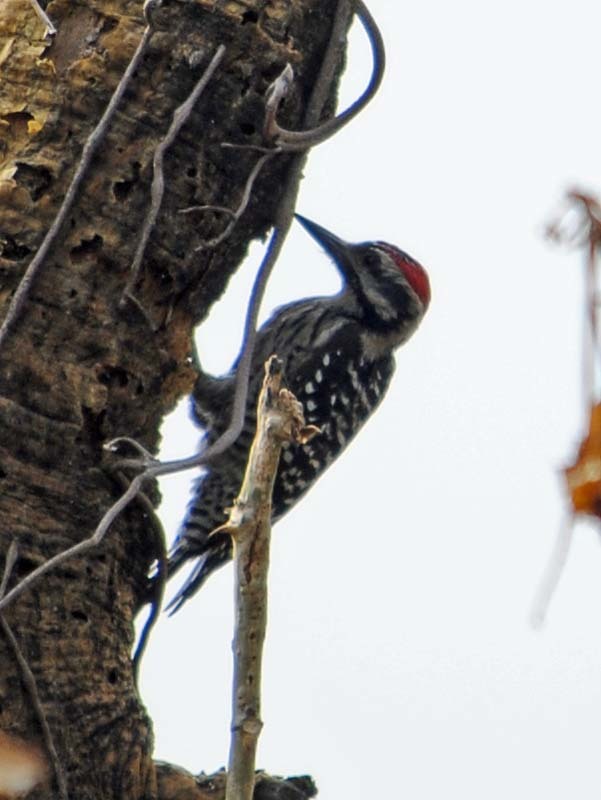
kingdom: Animalia
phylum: Chordata
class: Aves
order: Piciformes
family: Picidae
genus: Dryobates
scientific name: Dryobates scalaris
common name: Ladder-backed woodpecker
